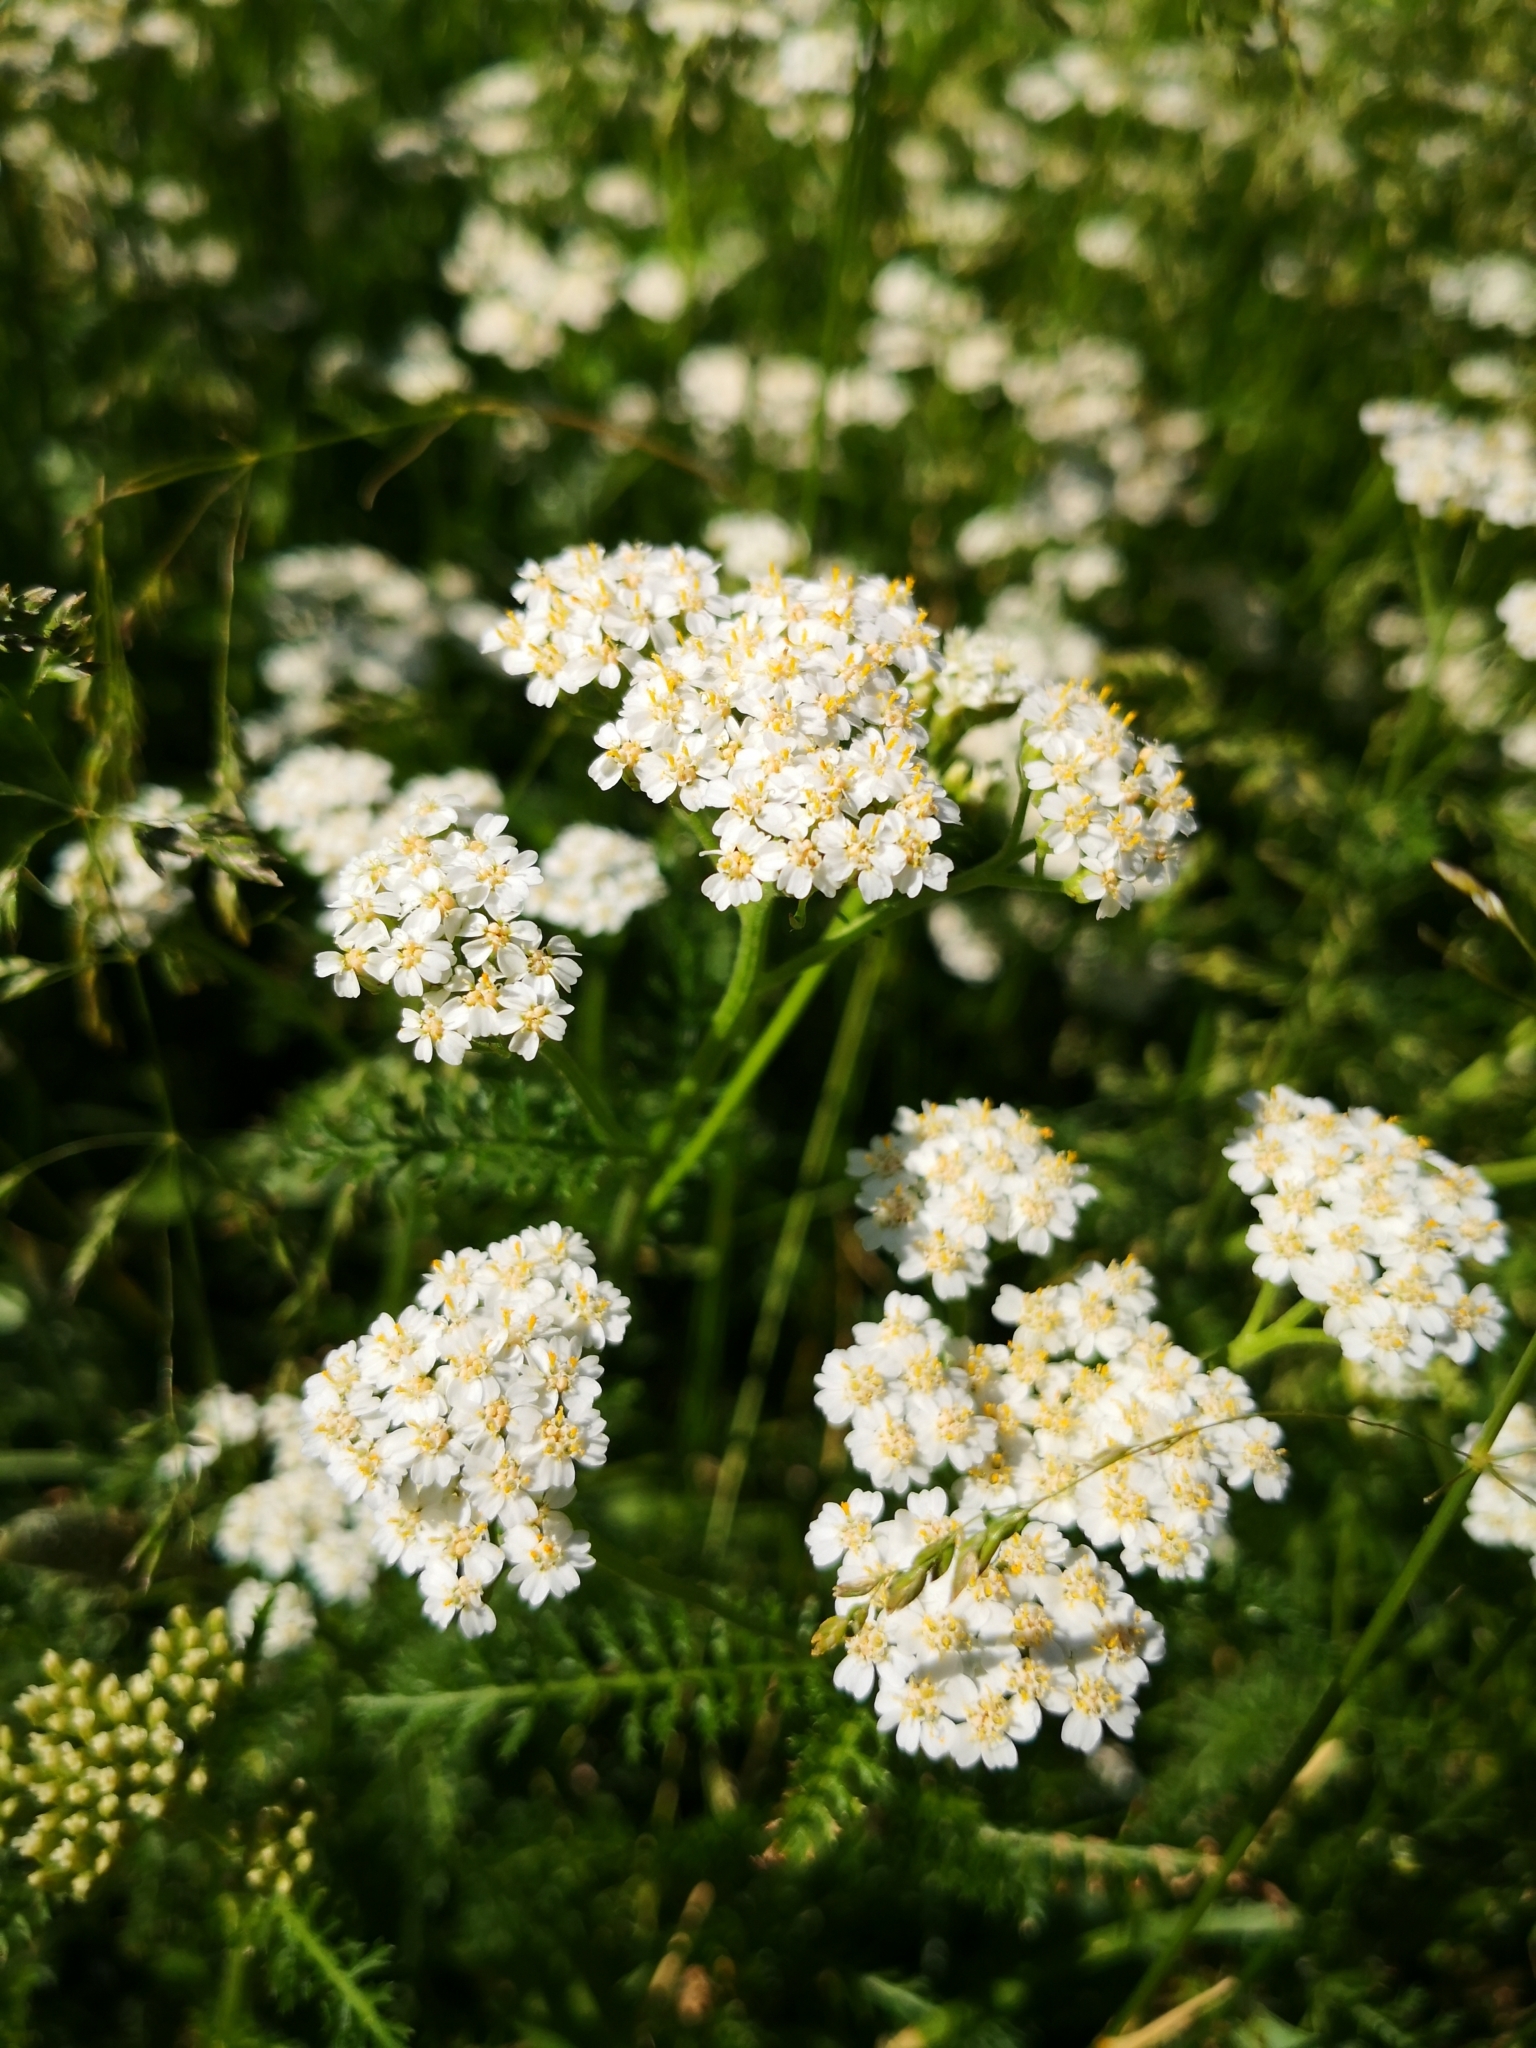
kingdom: Plantae
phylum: Tracheophyta
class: Magnoliopsida
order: Asterales
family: Asteraceae
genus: Achillea
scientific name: Achillea millefolium
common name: Yarrow
